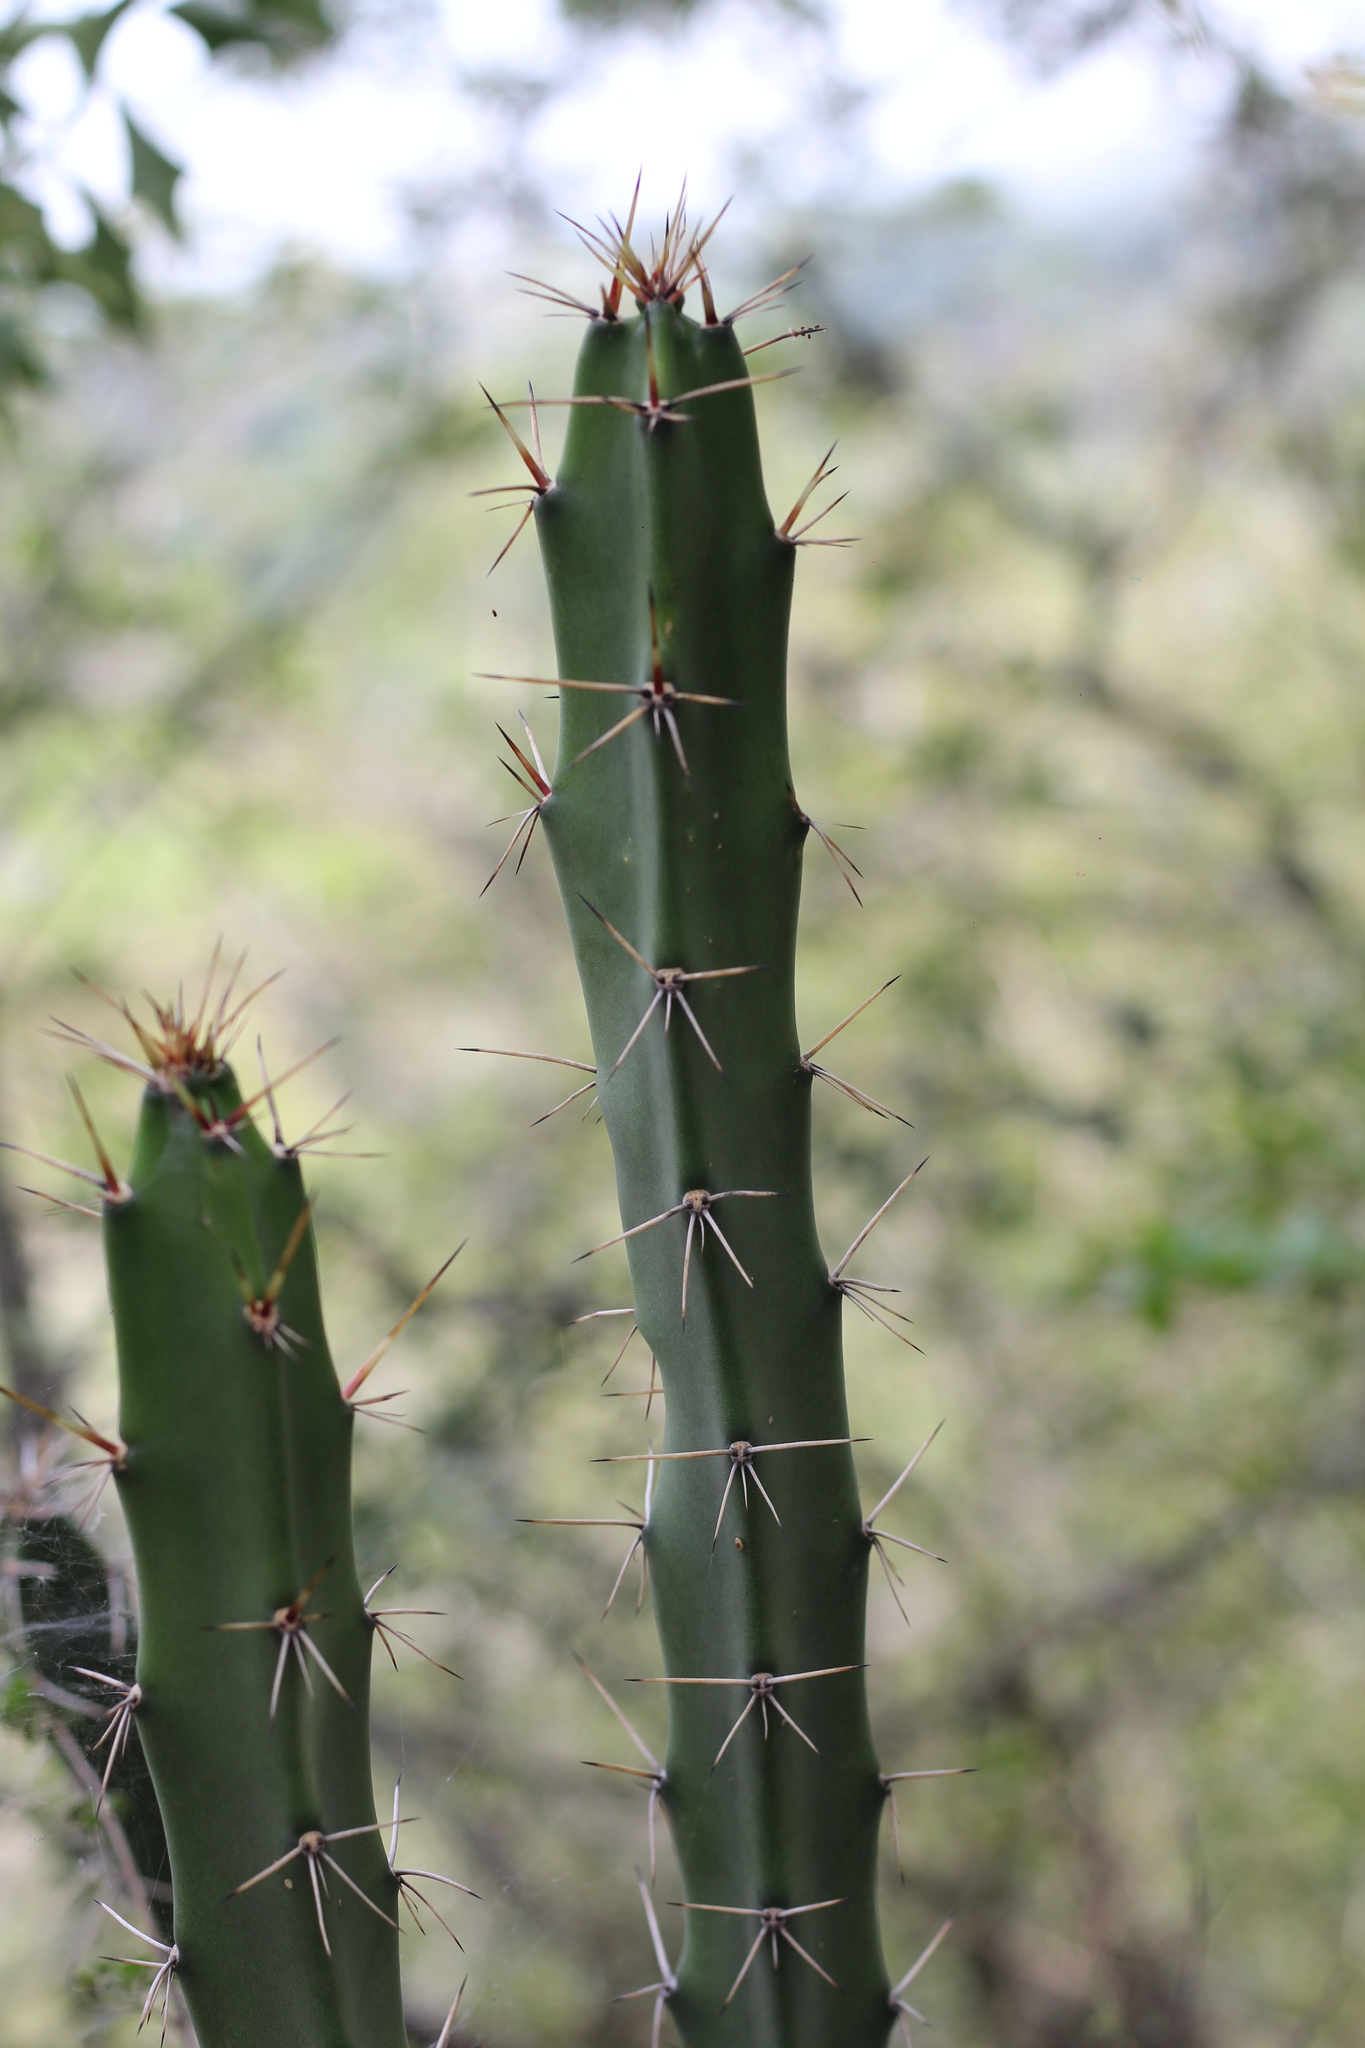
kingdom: Plantae
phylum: Tracheophyta
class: Magnoliopsida
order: Caryophyllales
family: Cactaceae
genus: Harrisia
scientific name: Harrisia bonplandii
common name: Queen of the night cactus
